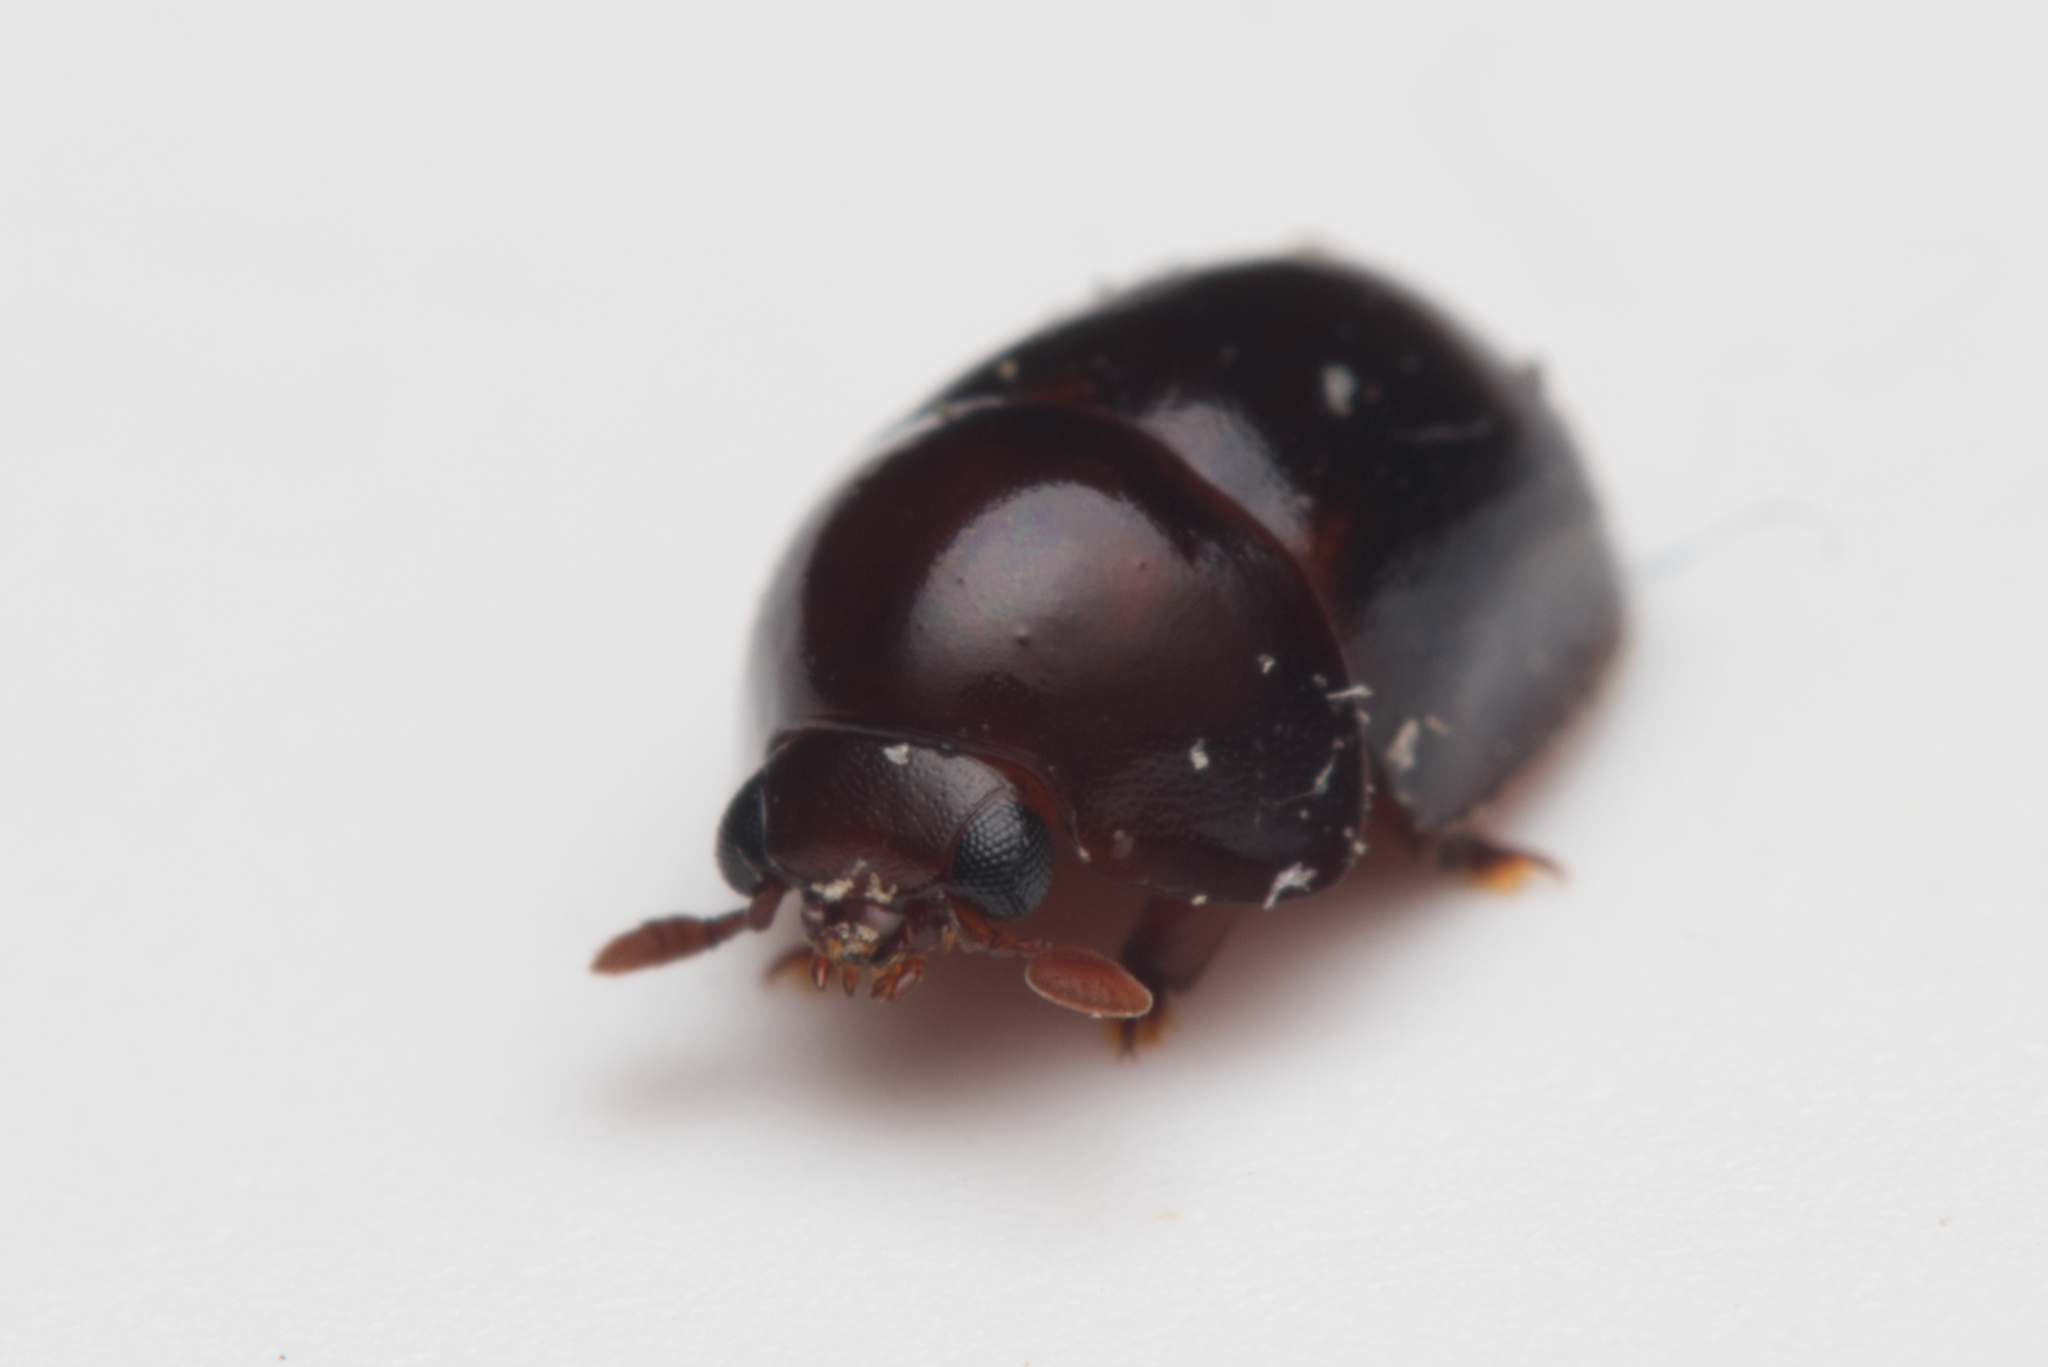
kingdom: Animalia
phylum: Arthropoda
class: Insecta
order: Coleoptera
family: Nitidulidae
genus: Cychramptodes
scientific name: Cychramptodes
